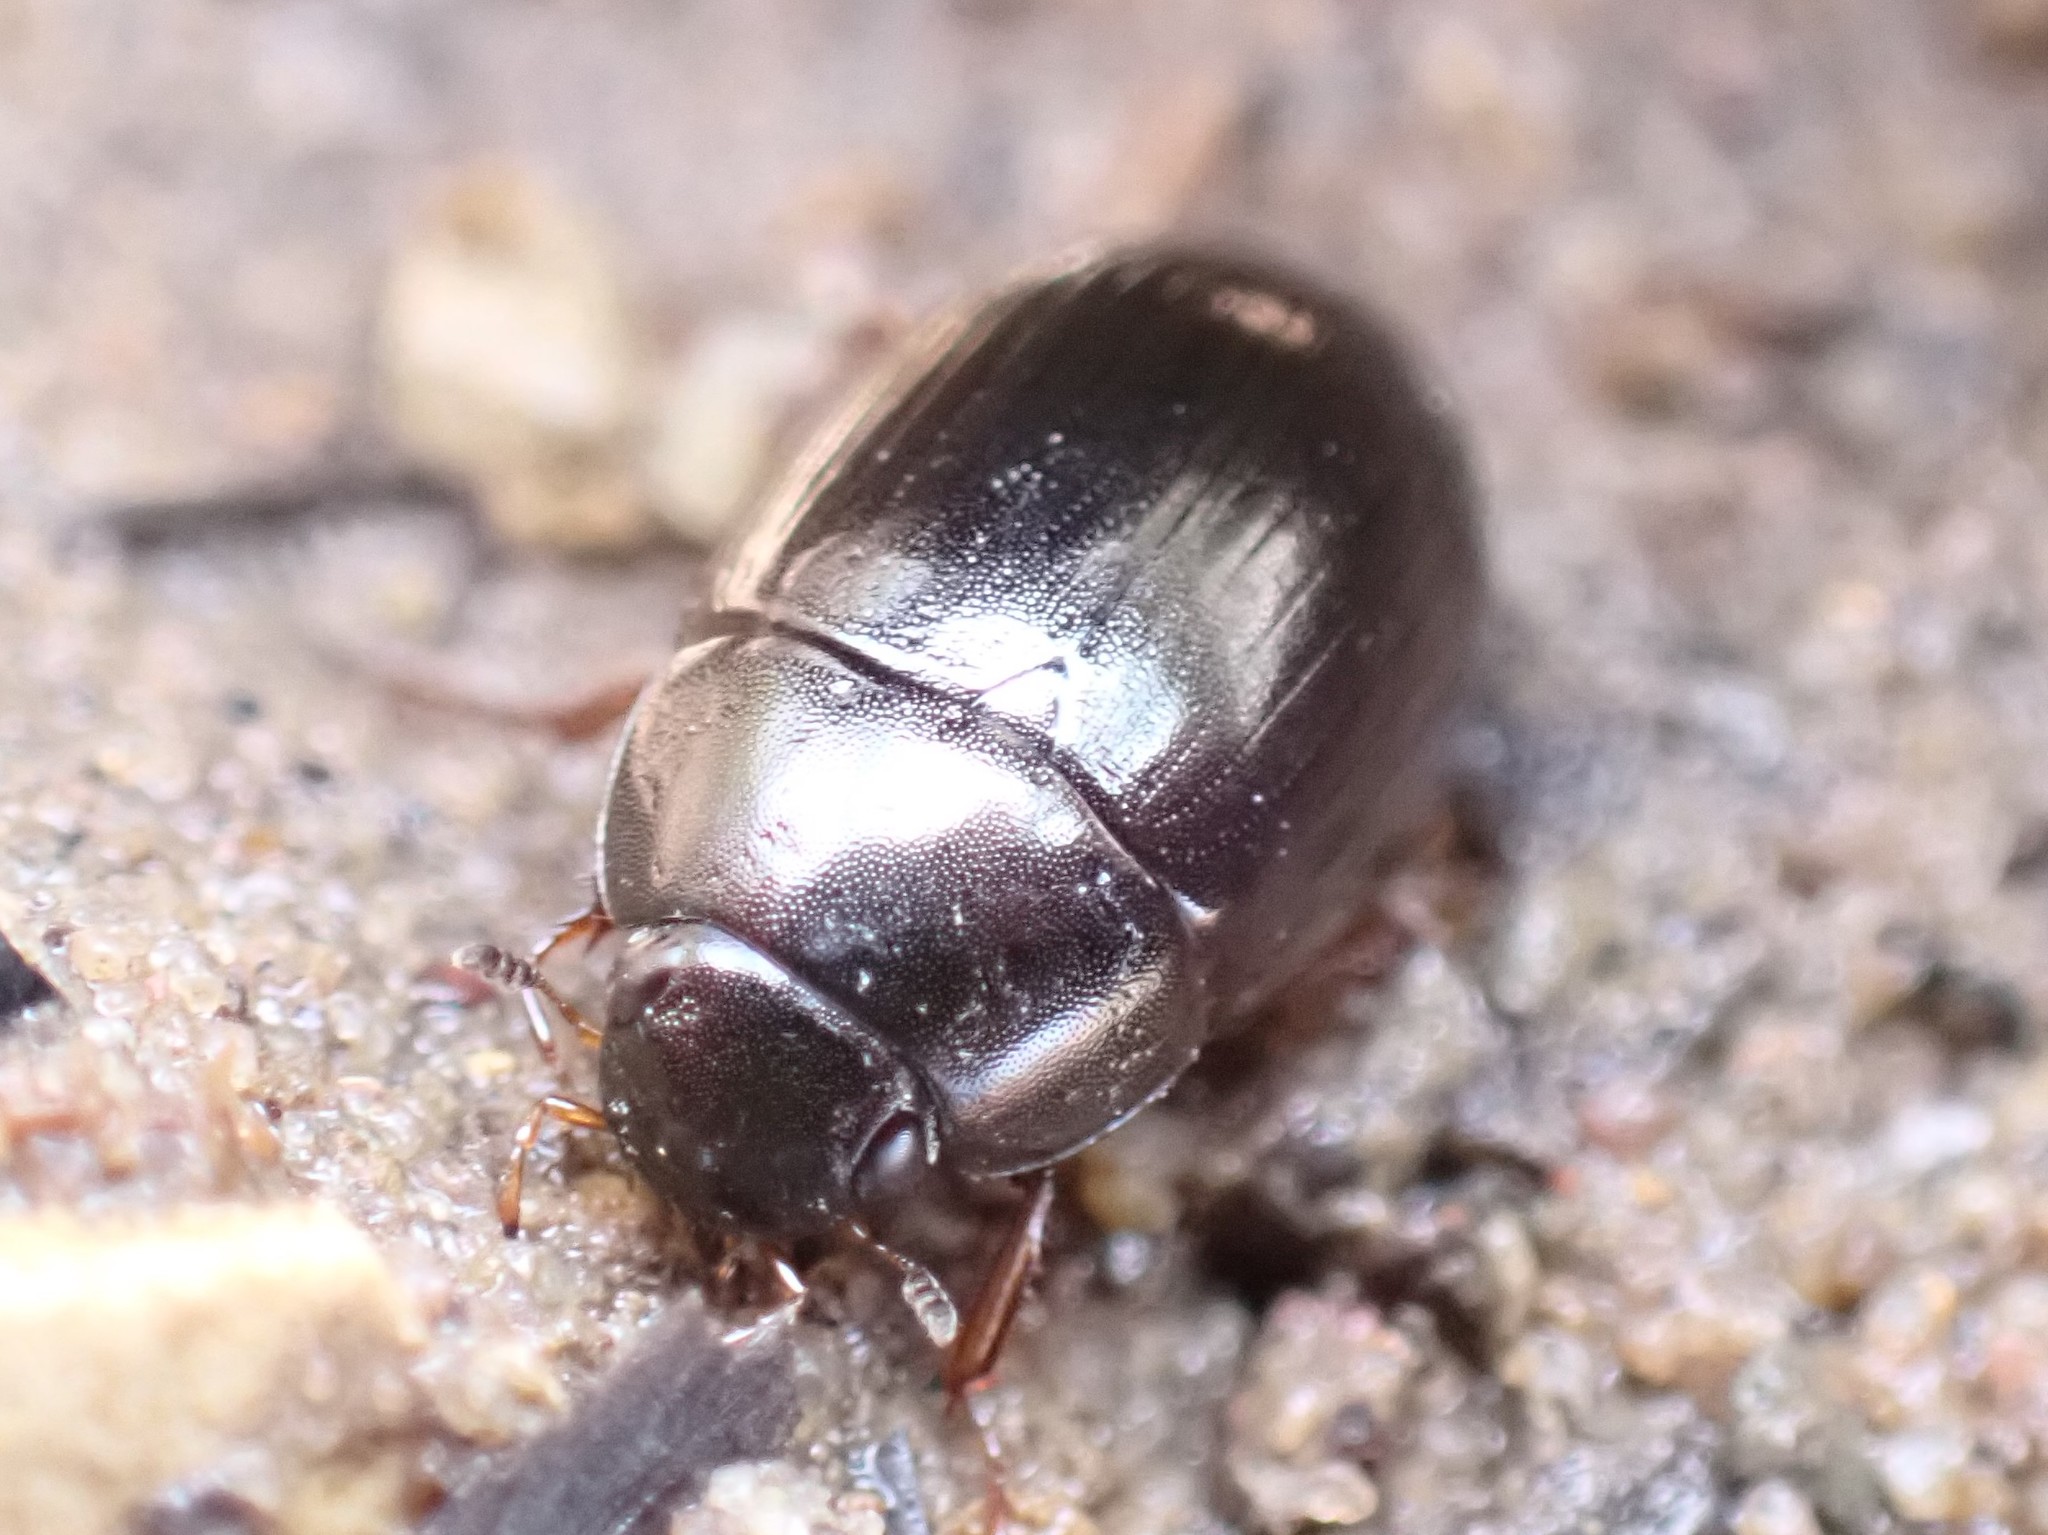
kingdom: Animalia
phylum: Arthropoda
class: Insecta
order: Coleoptera
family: Hydrophilidae
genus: Hydrobius
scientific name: Hydrobius fuscipes
